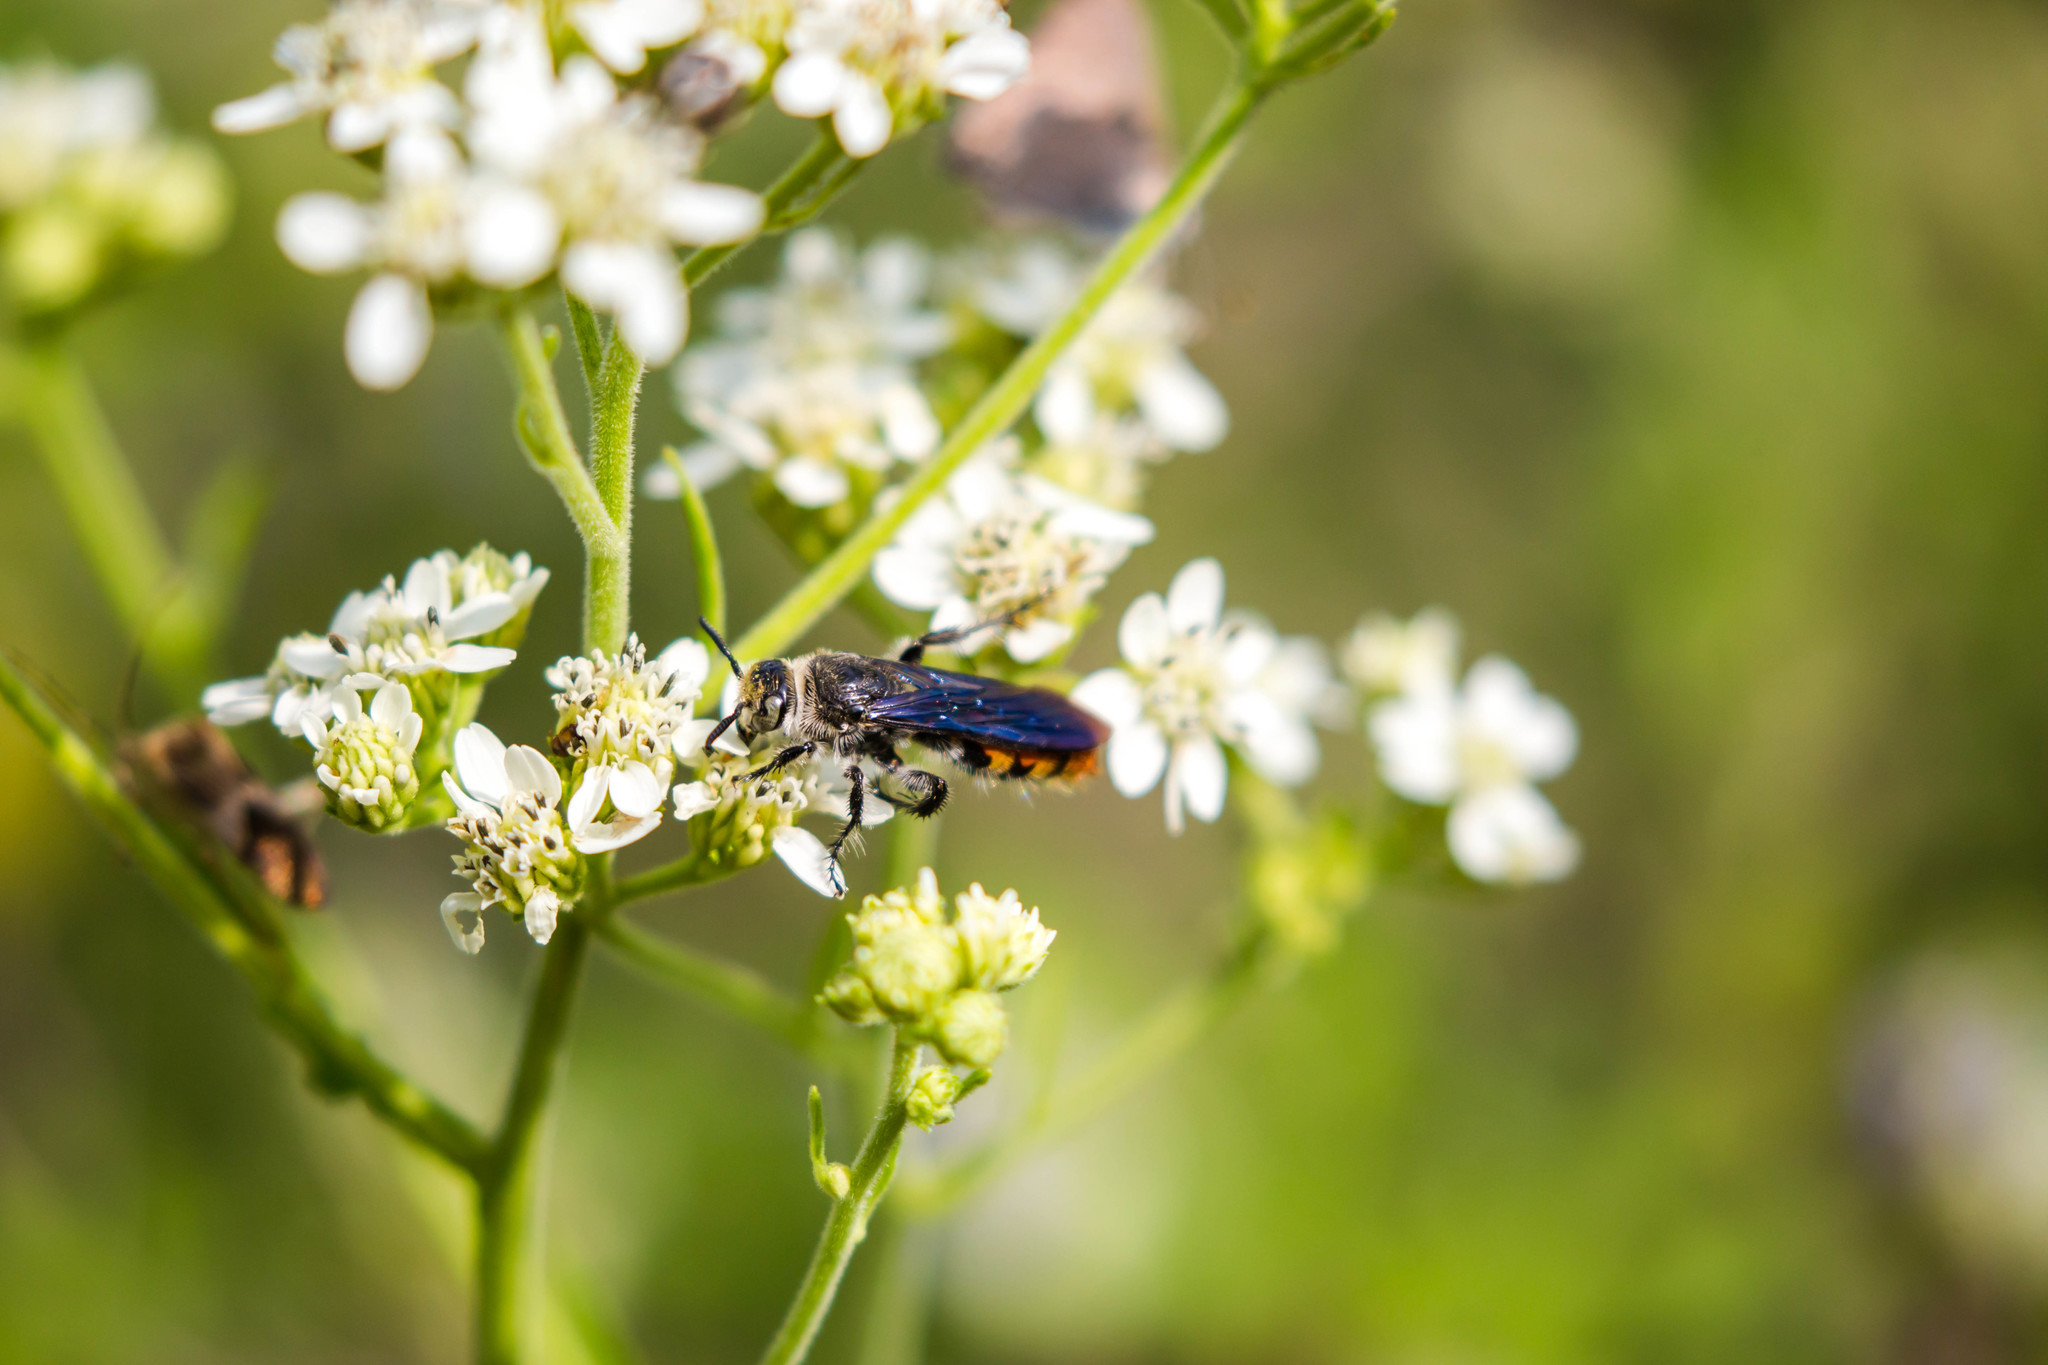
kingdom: Animalia
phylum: Arthropoda
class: Insecta
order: Hymenoptera
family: Scoliidae
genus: Dielis
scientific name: Dielis tolteca
